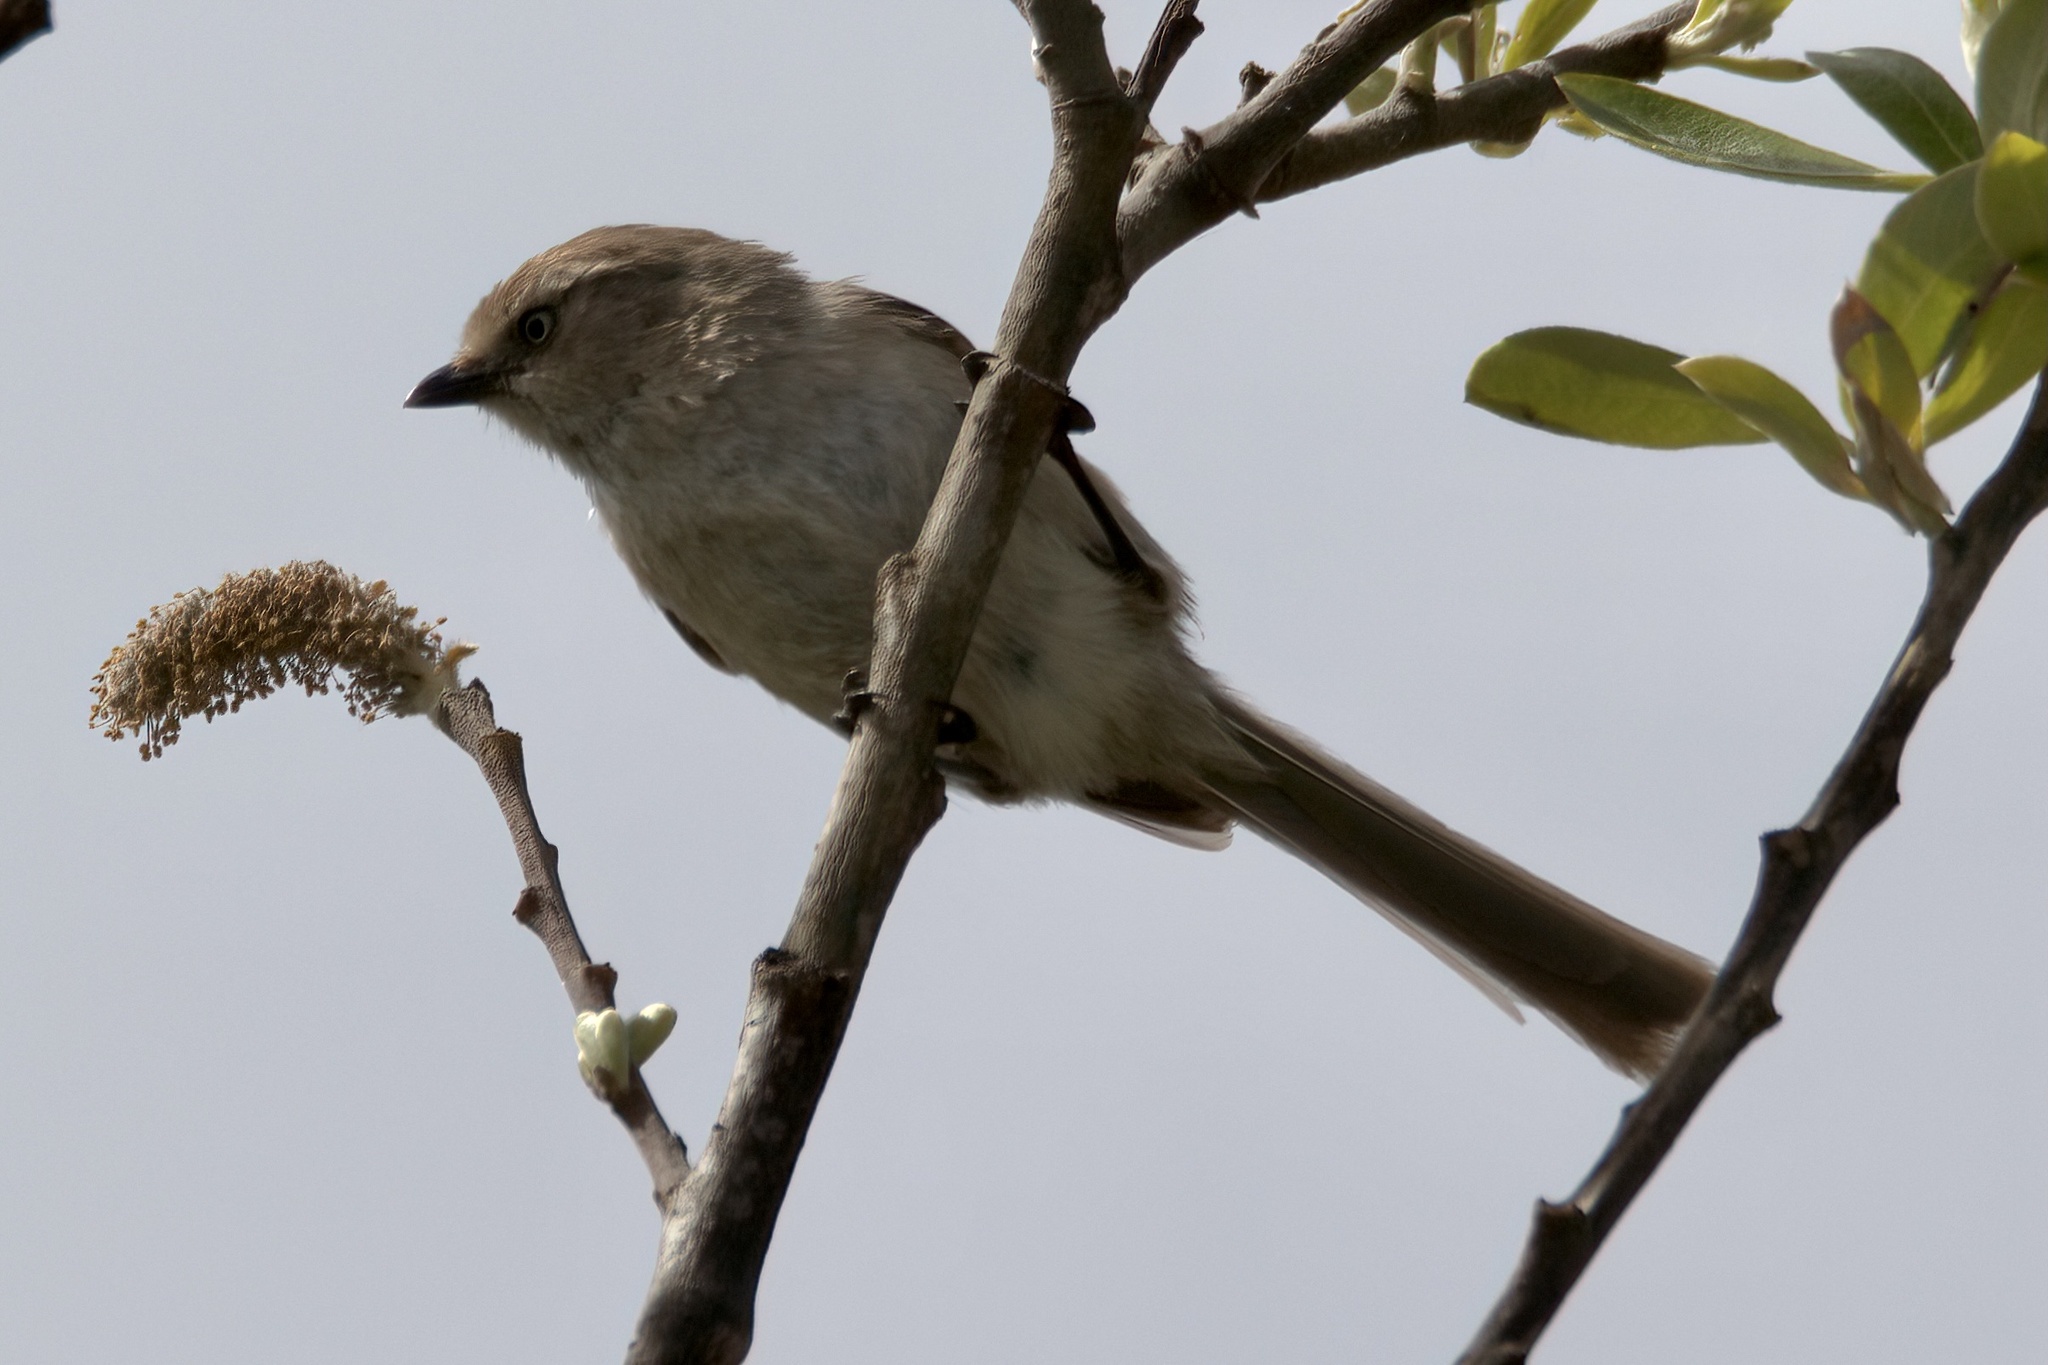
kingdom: Animalia
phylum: Chordata
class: Aves
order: Passeriformes
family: Aegithalidae
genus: Psaltriparus
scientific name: Psaltriparus minimus
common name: American bushtit
